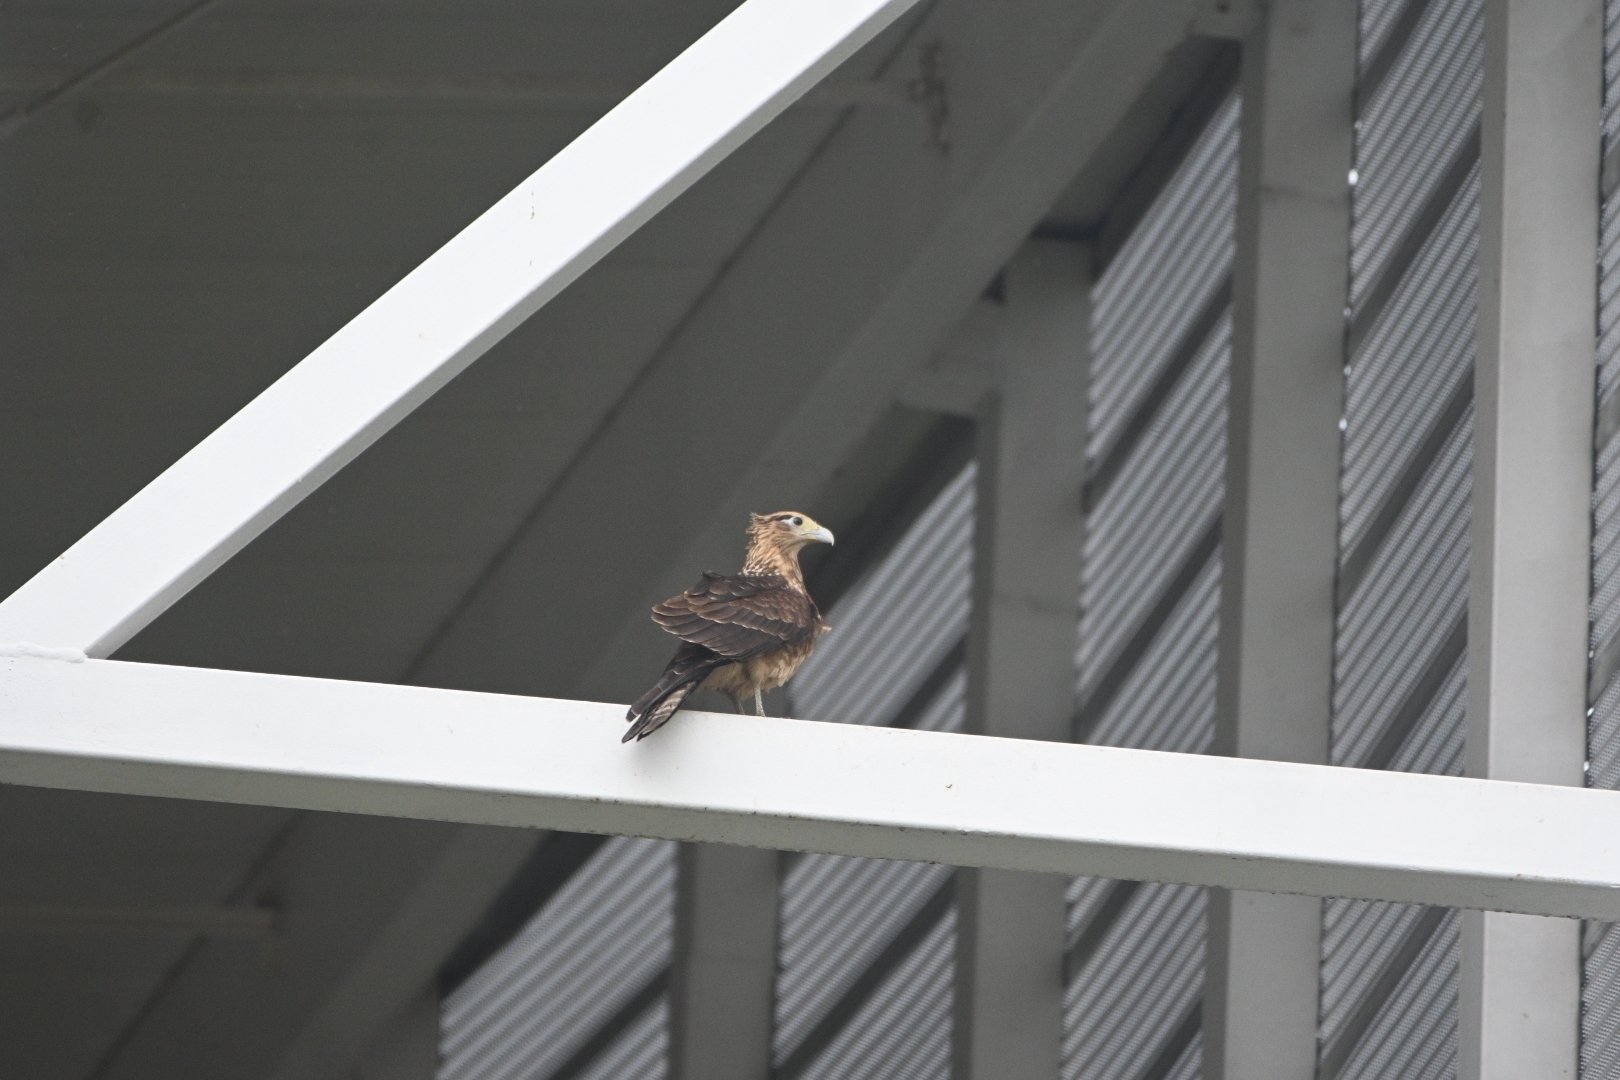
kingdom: Animalia
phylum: Chordata
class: Aves
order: Falconiformes
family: Falconidae
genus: Daptrius
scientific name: Daptrius
